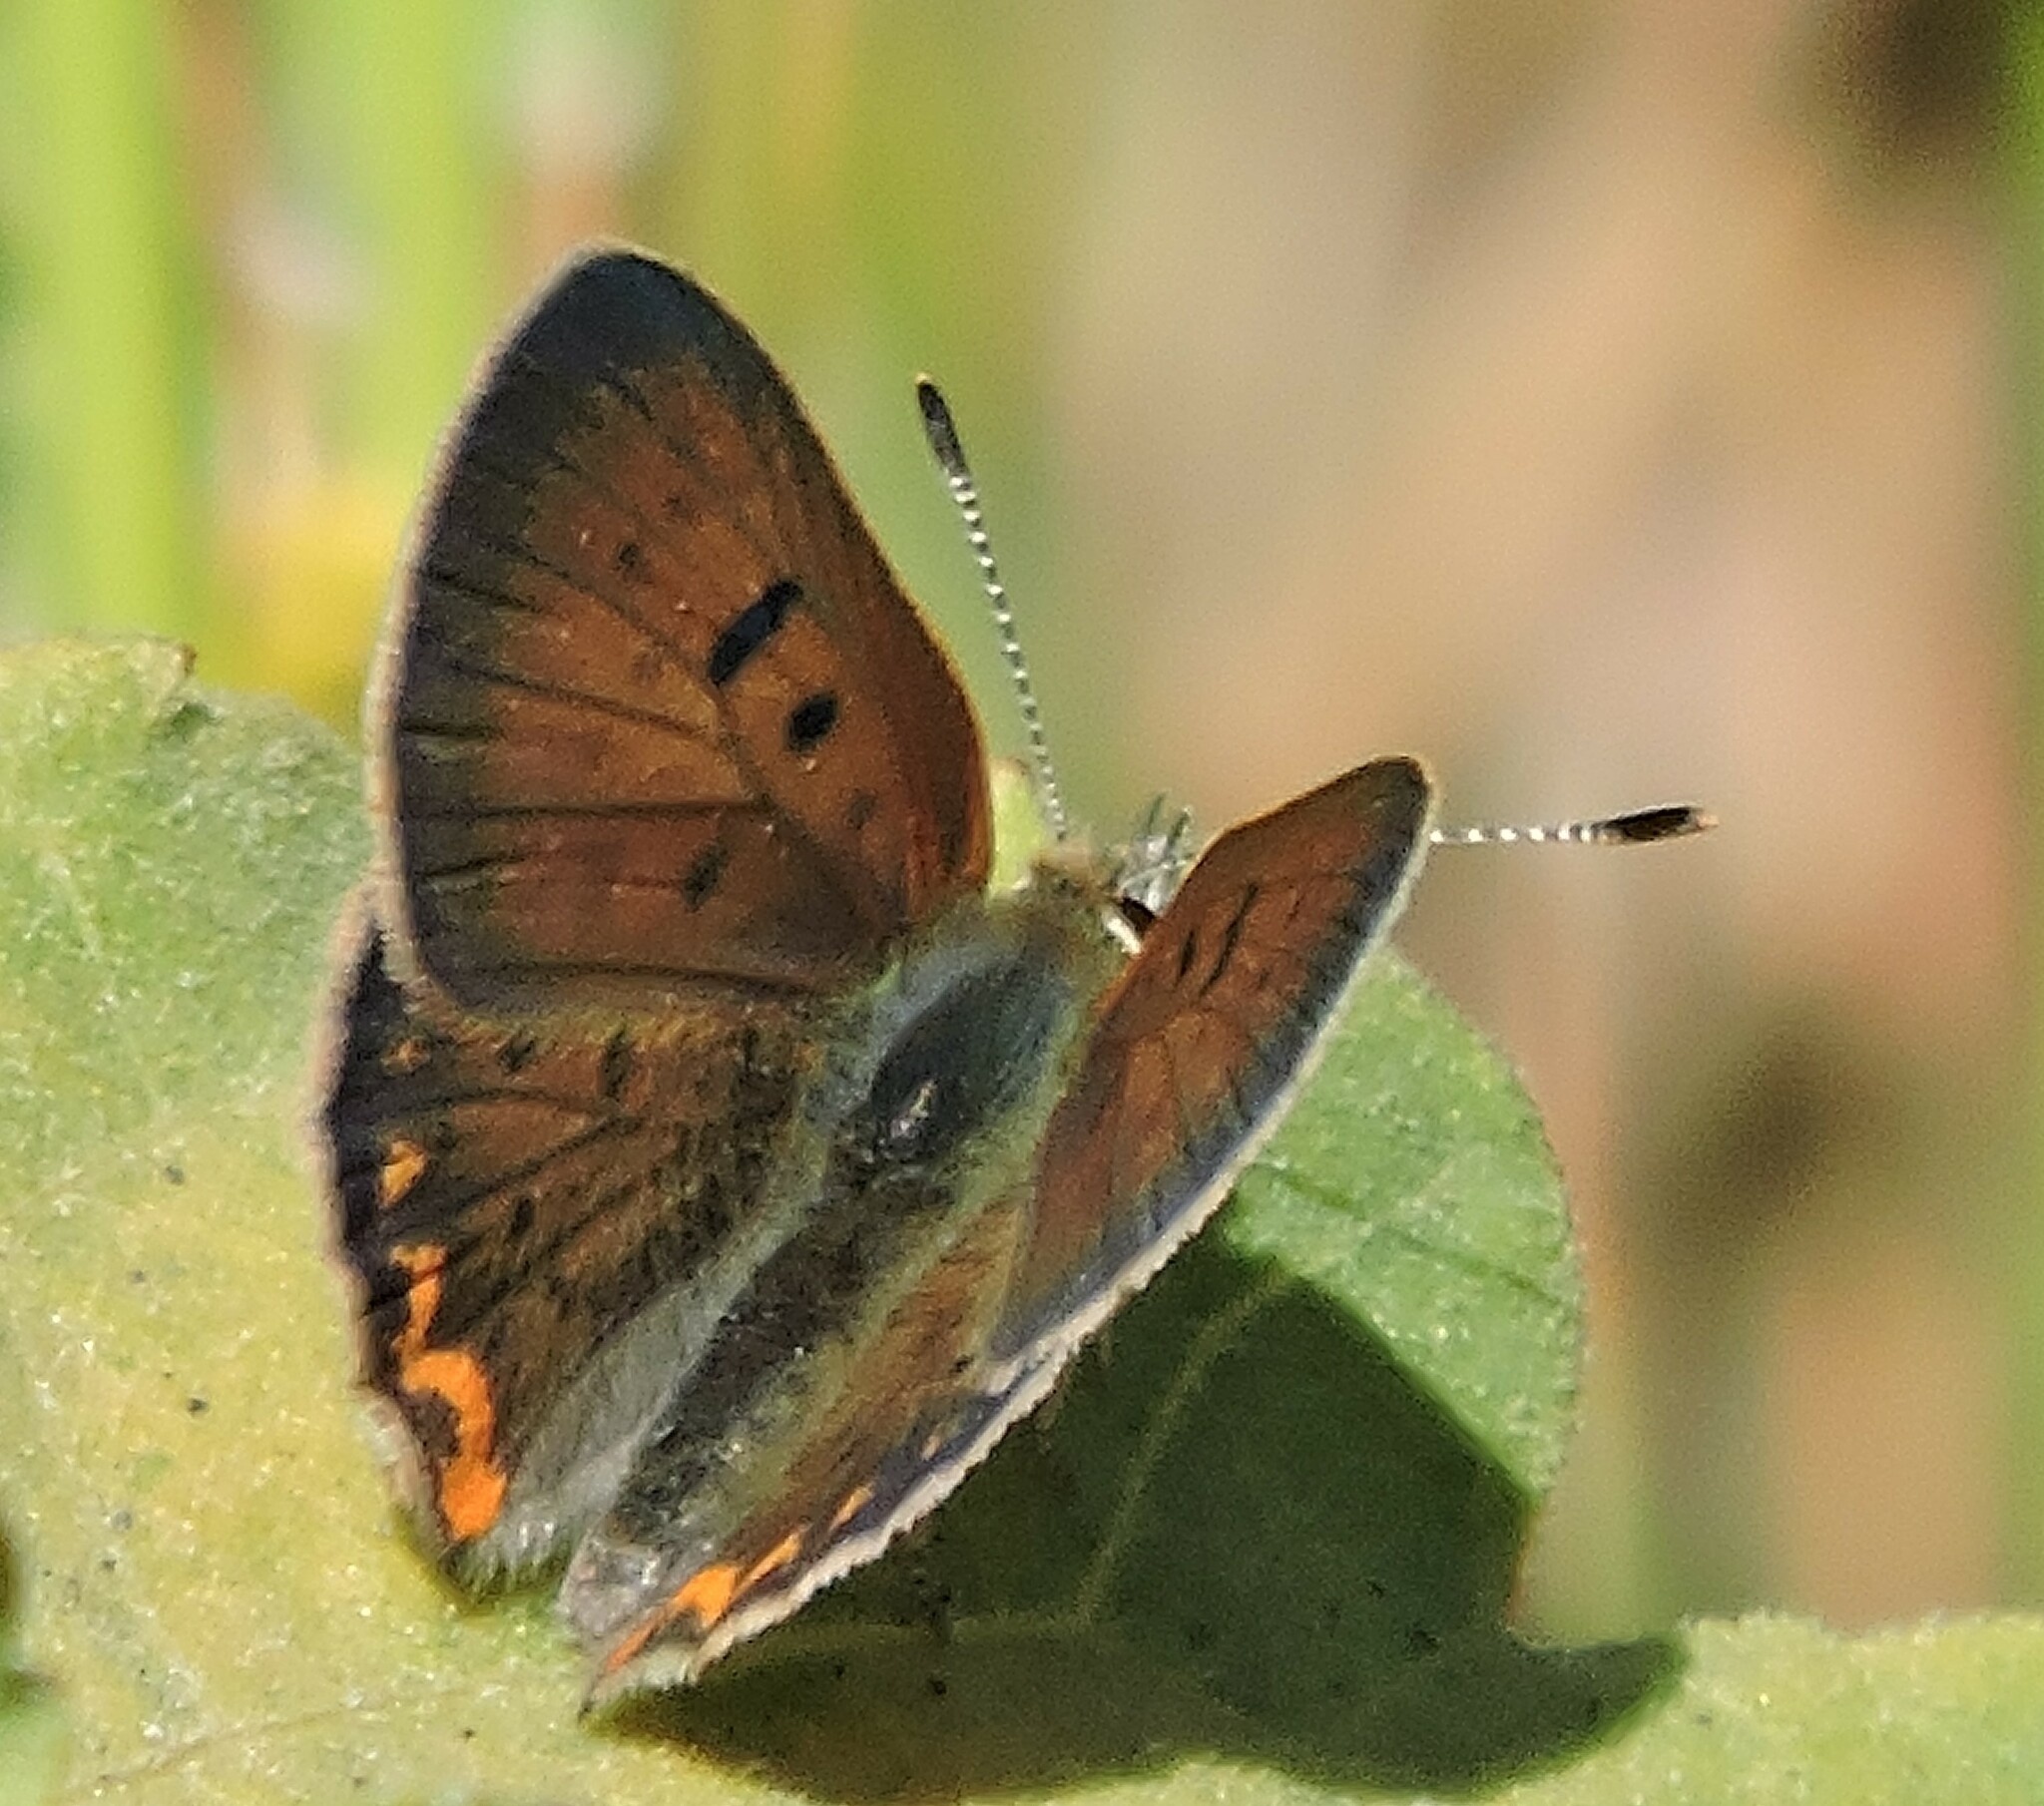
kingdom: Animalia
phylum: Arthropoda
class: Insecta
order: Lepidoptera
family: Lycaenidae
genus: Tharsalea
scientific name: Tharsalea helloides
